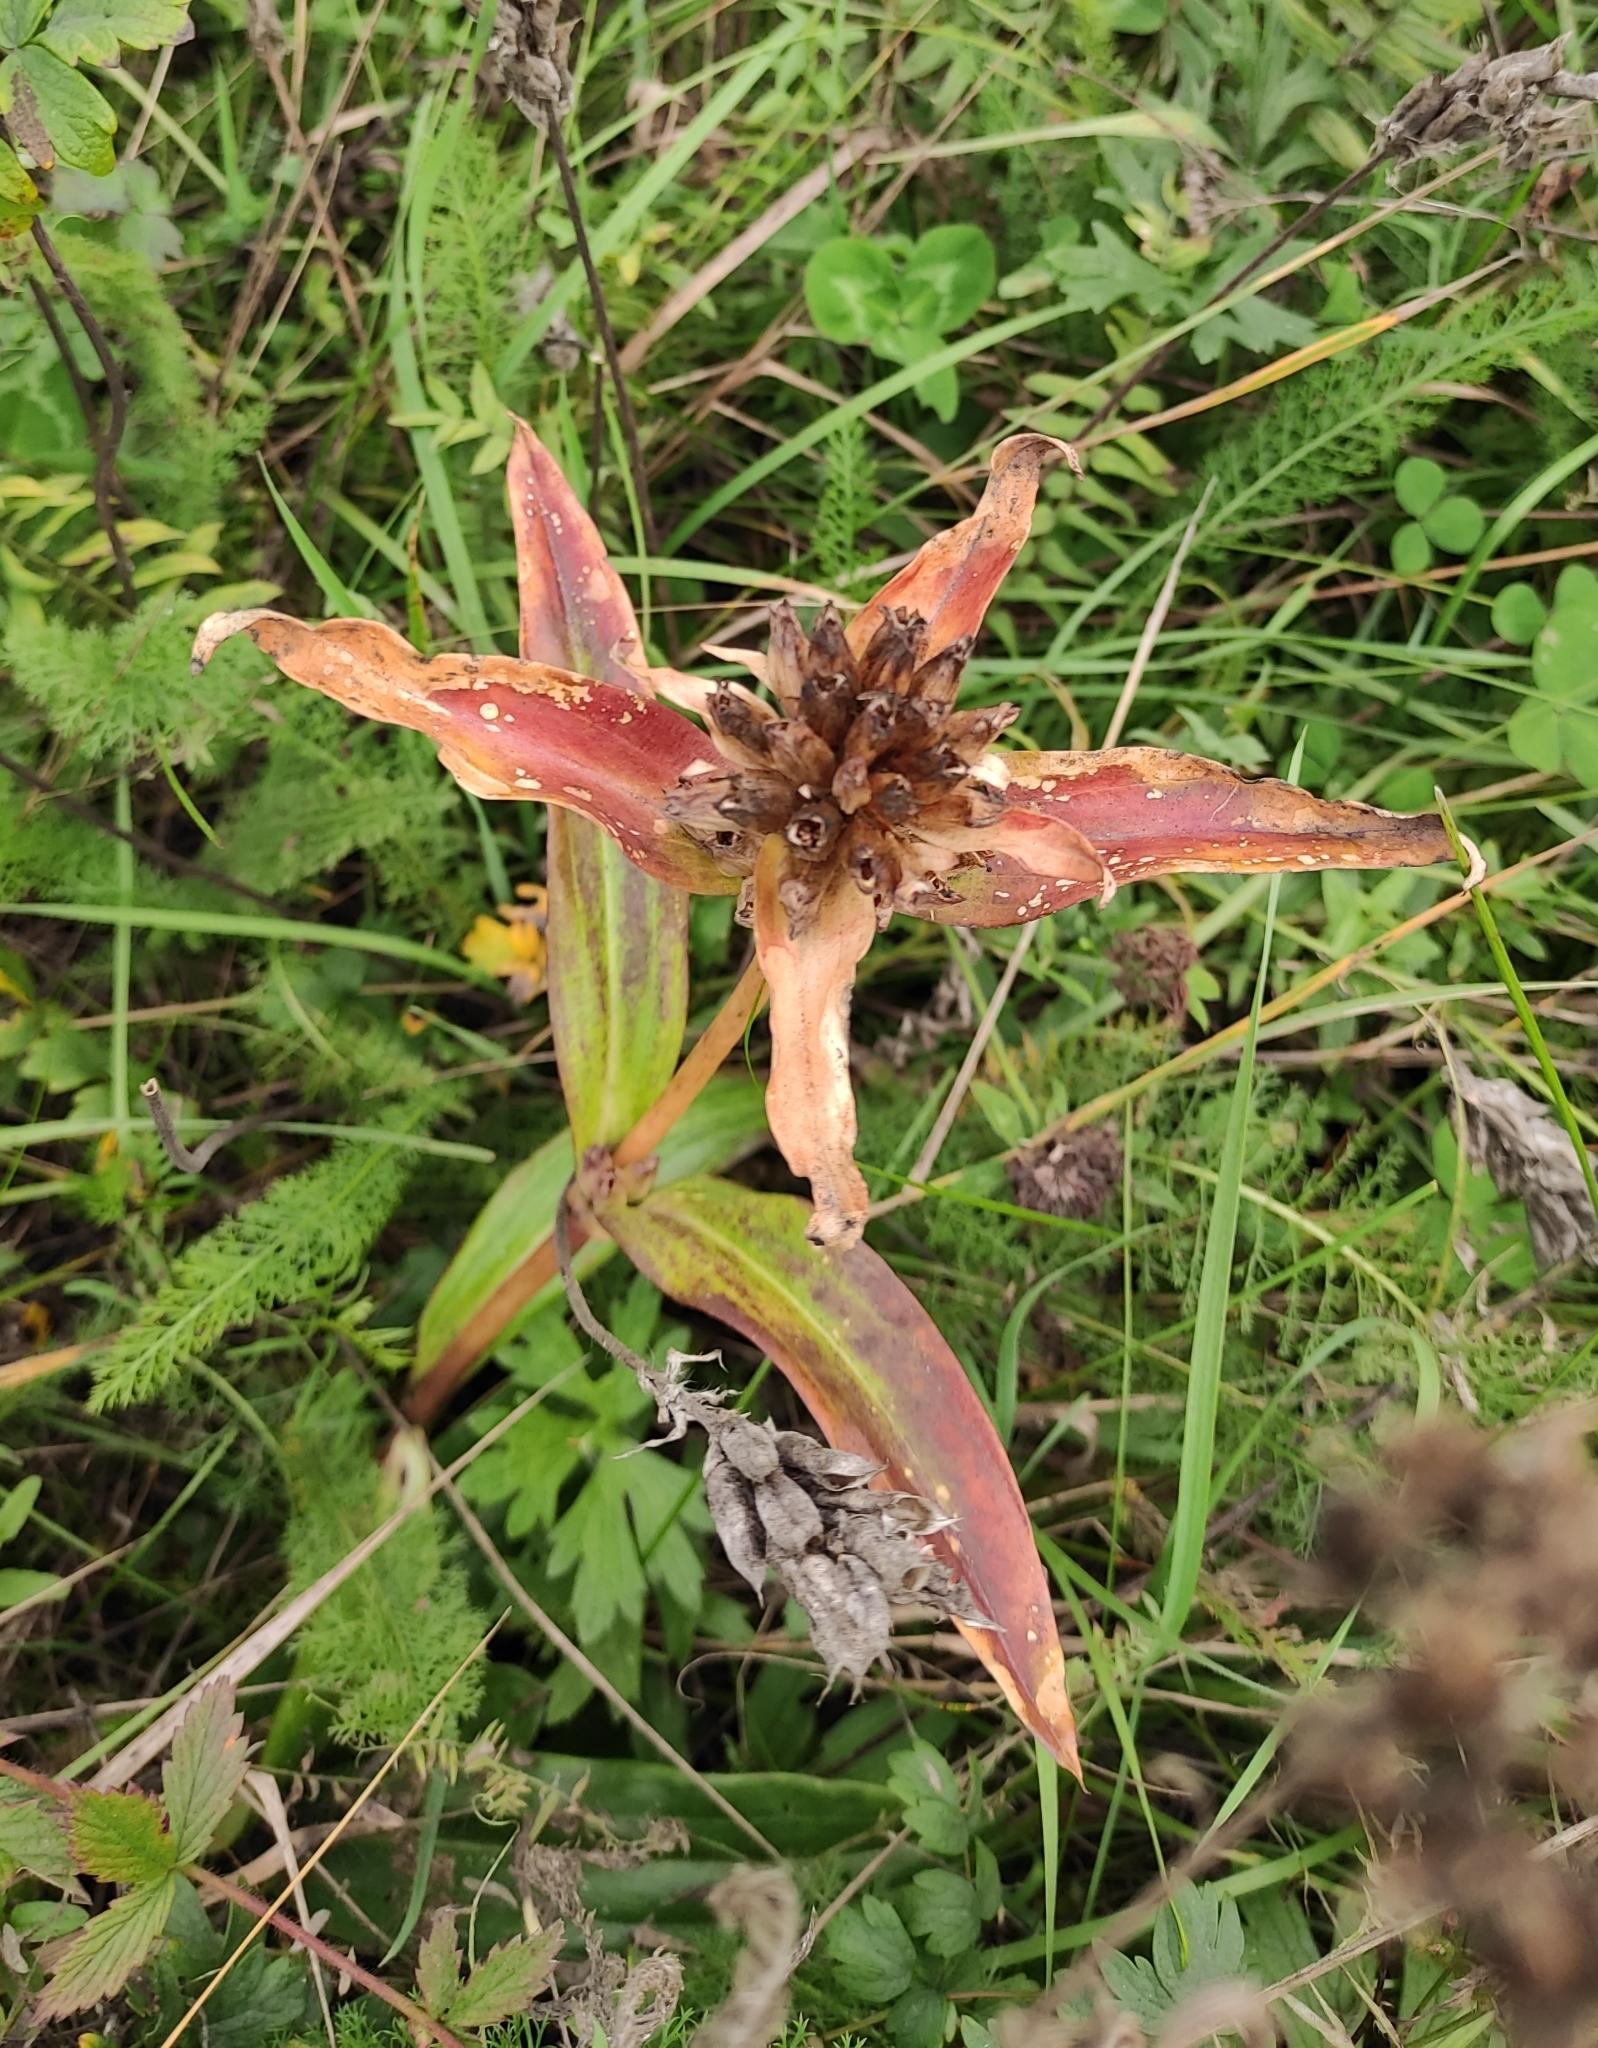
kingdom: Plantae
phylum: Tracheophyta
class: Magnoliopsida
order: Gentianales
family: Gentianaceae
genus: Gentiana
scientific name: Gentiana macrophylla
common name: Large-leaf gentian
